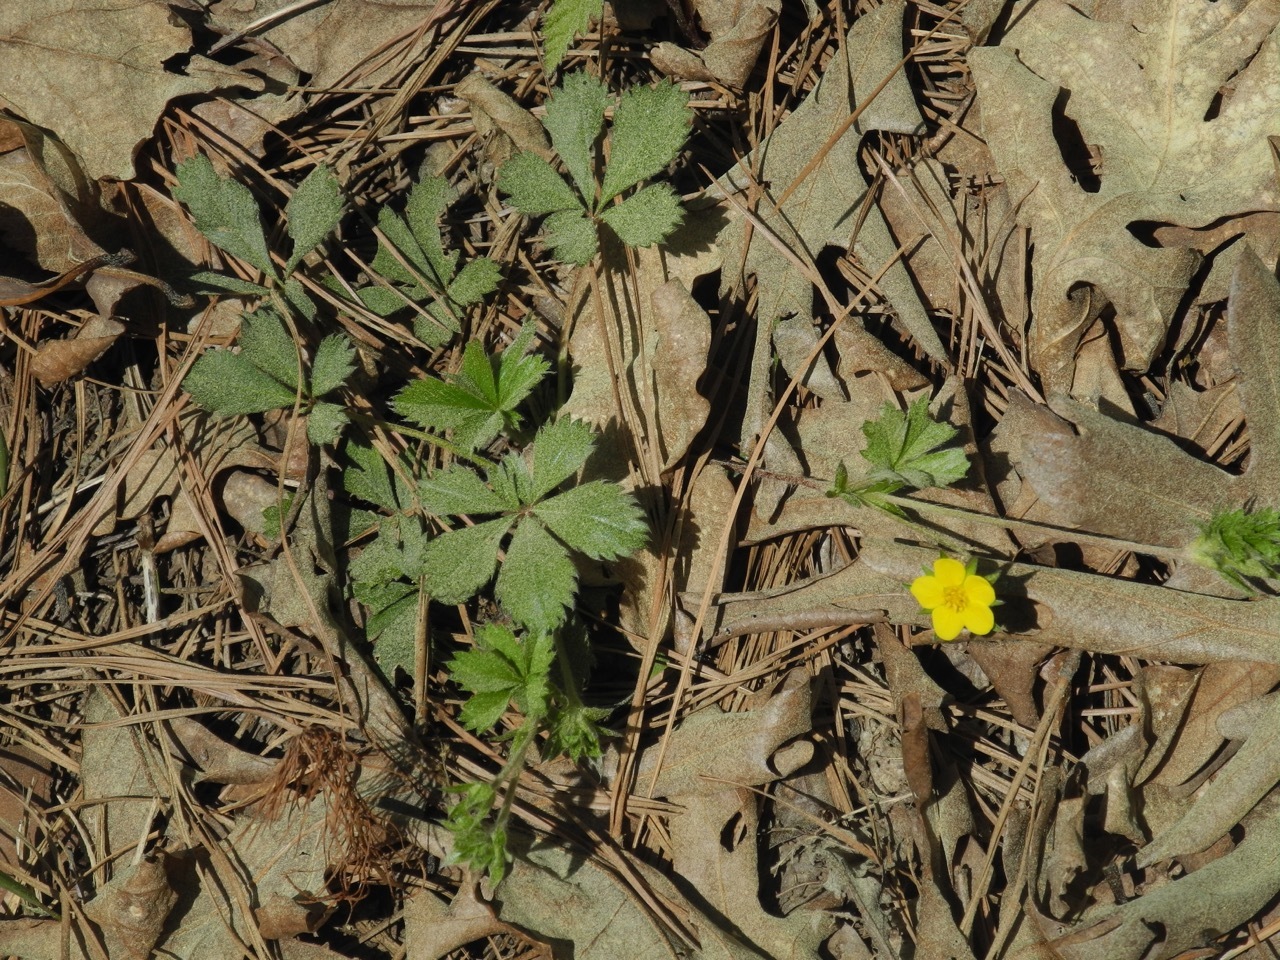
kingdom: Plantae
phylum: Tracheophyta
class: Magnoliopsida
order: Rosales
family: Rosaceae
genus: Potentilla
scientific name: Potentilla canadensis
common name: Canada cinquefoil
